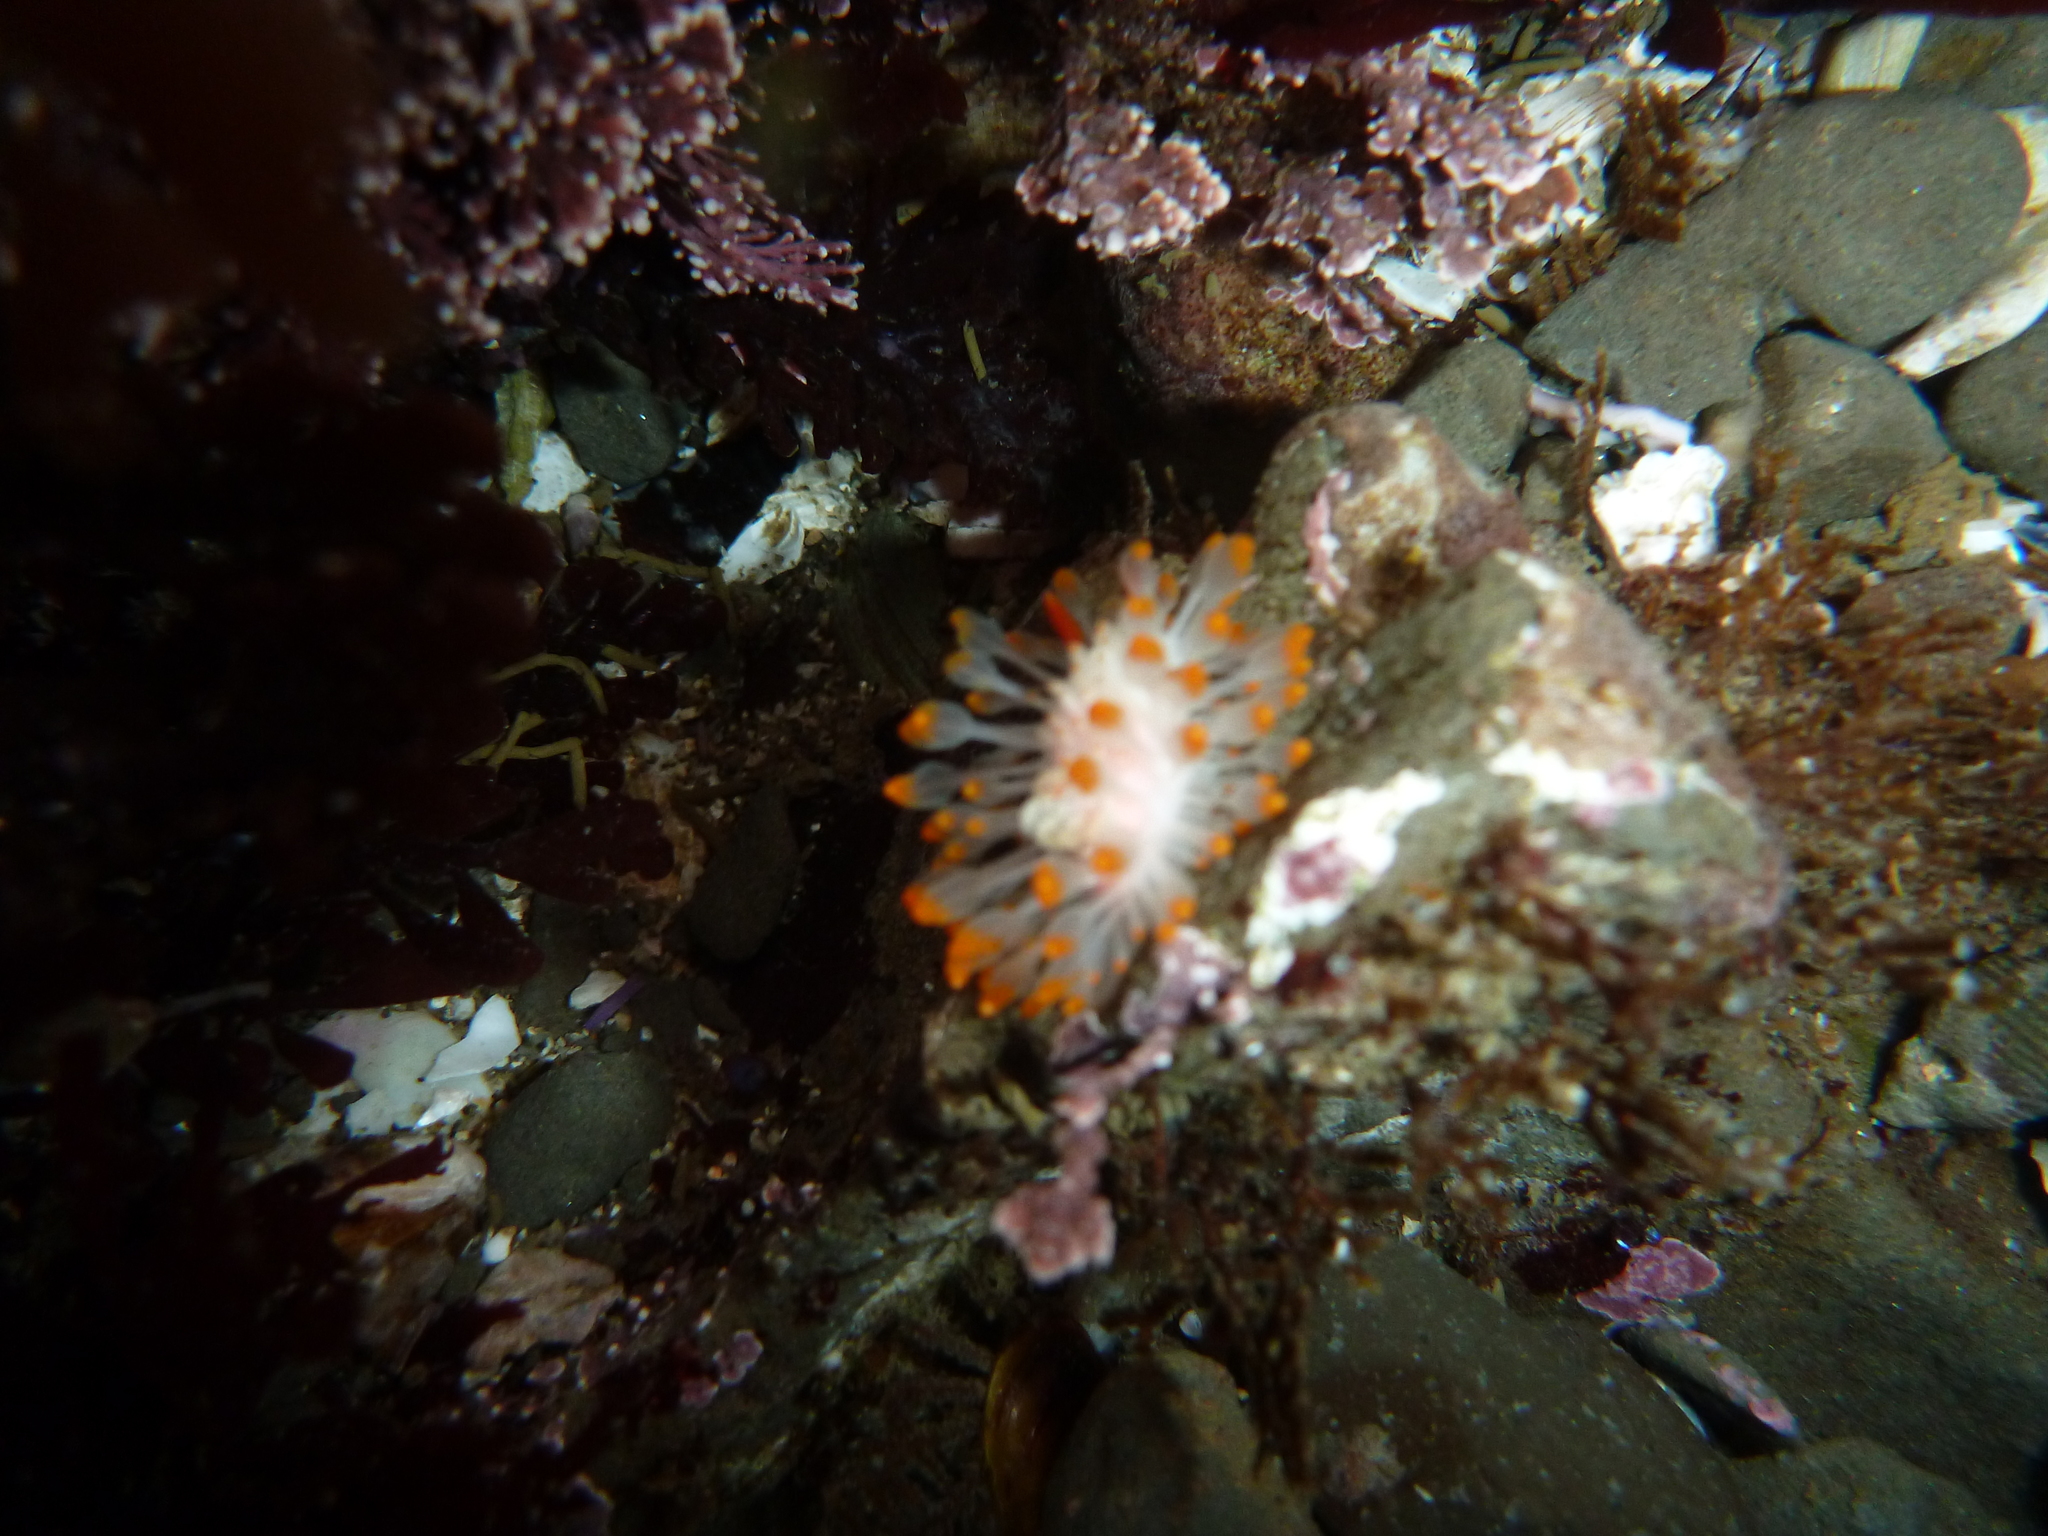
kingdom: Animalia
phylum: Mollusca
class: Gastropoda
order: Nudibranchia
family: Polyceridae
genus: Limacia
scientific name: Limacia cockerelli
